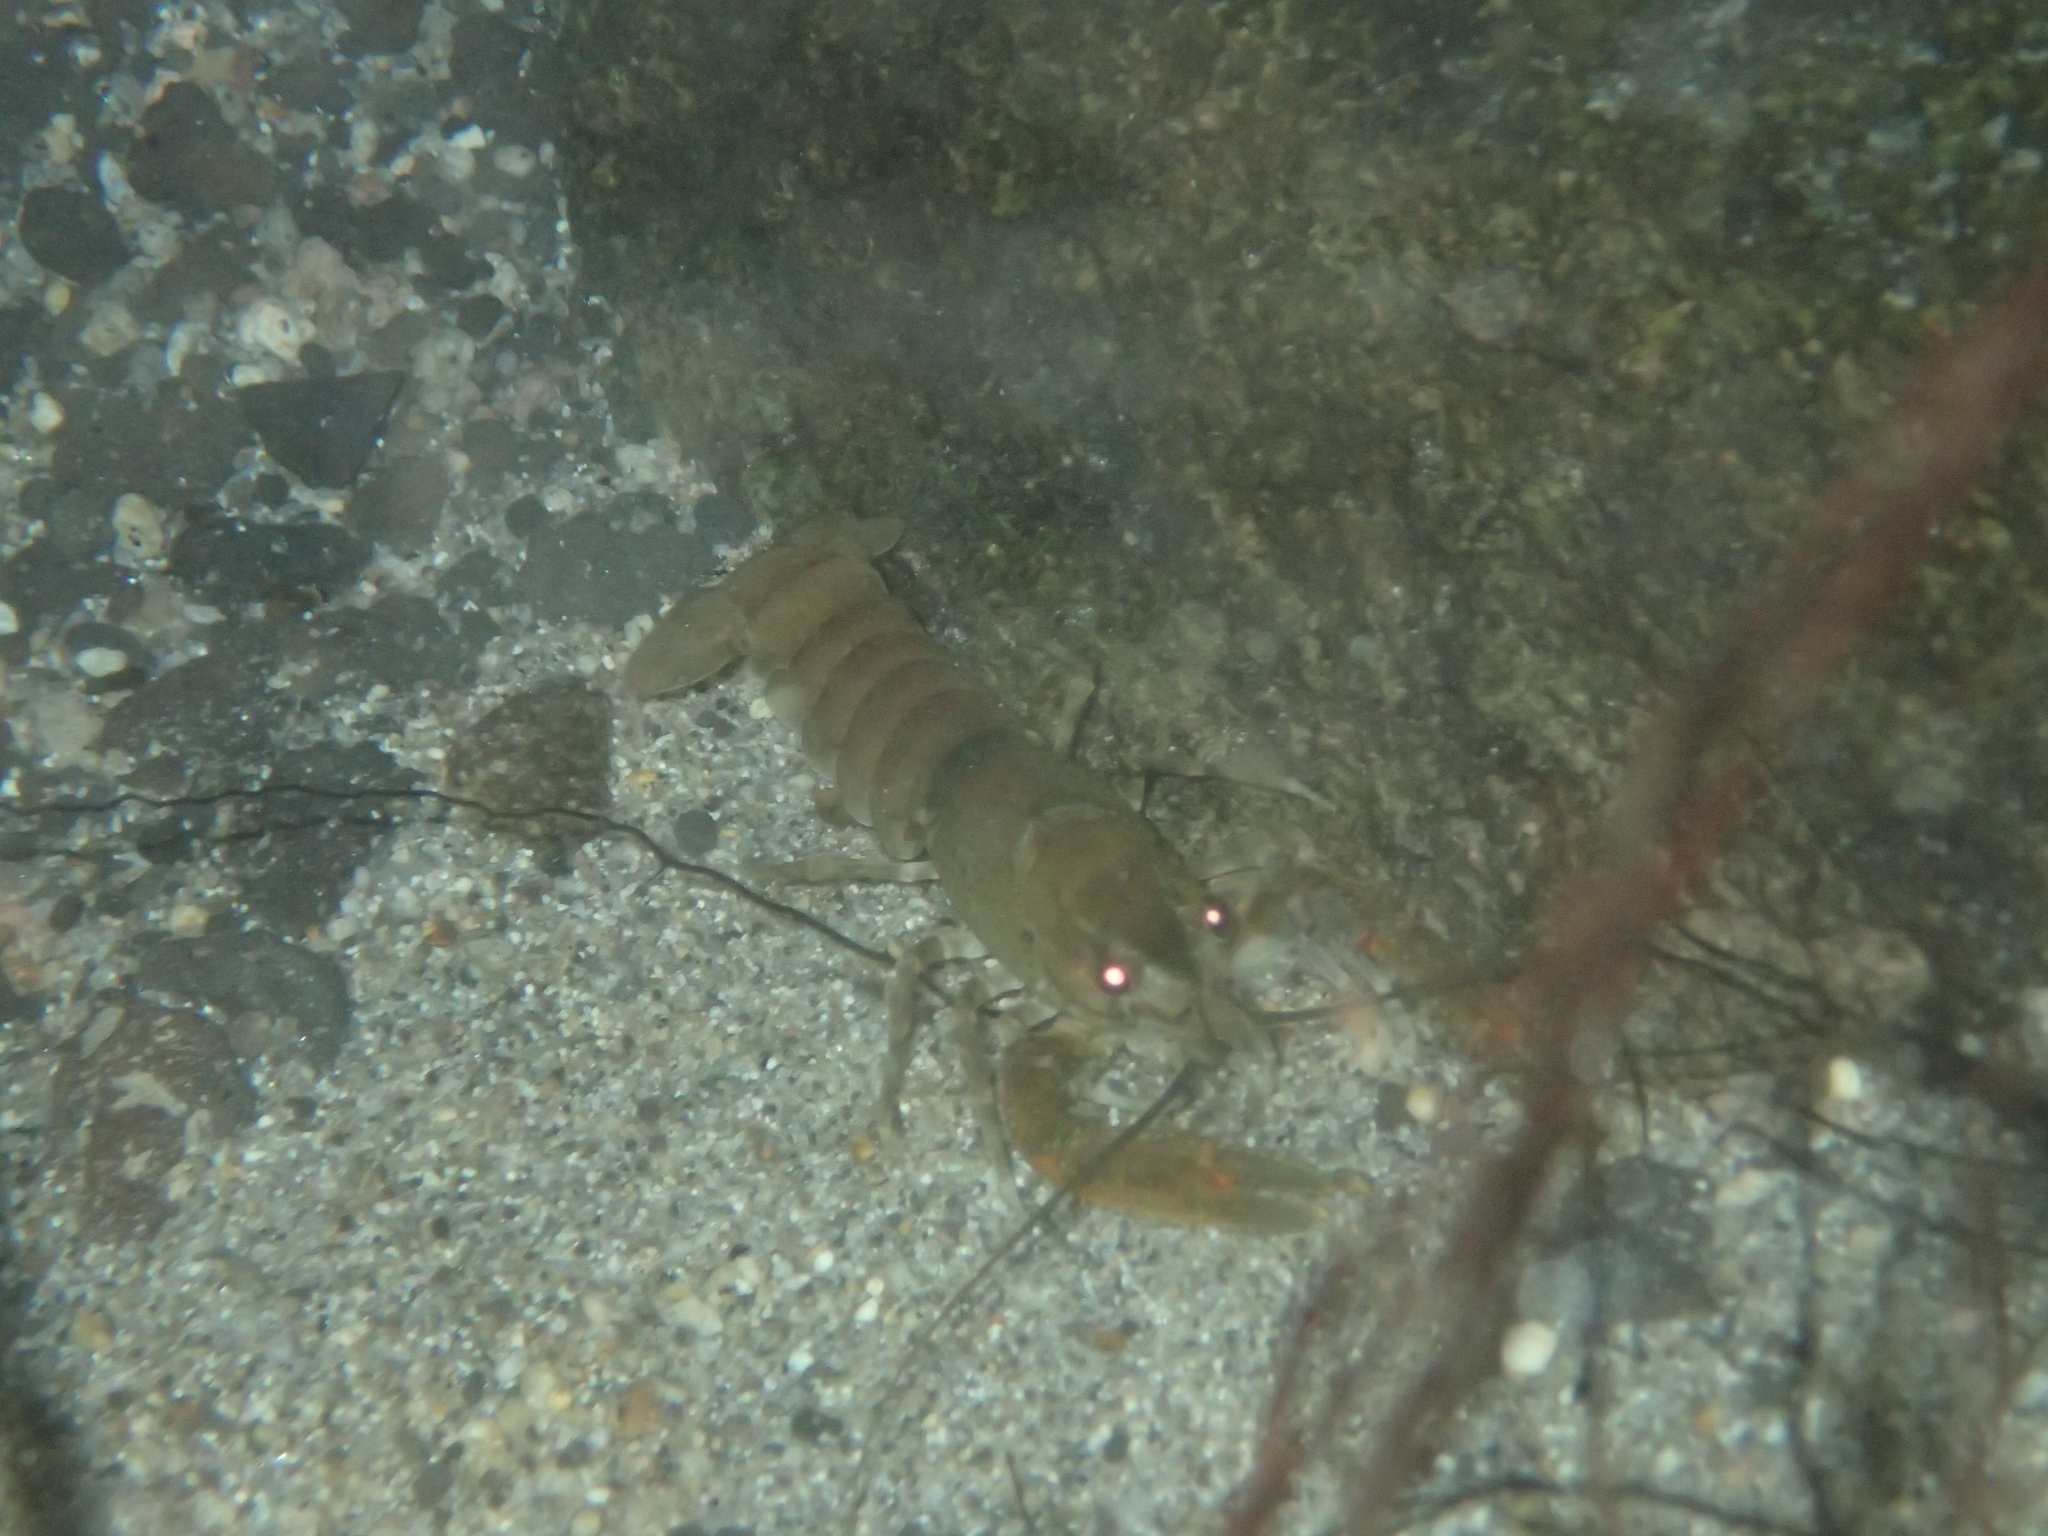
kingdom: Animalia
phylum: Arthropoda
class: Malacostraca
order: Decapoda
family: Parastacidae
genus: Paranephrops
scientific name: Paranephrops planifrons
